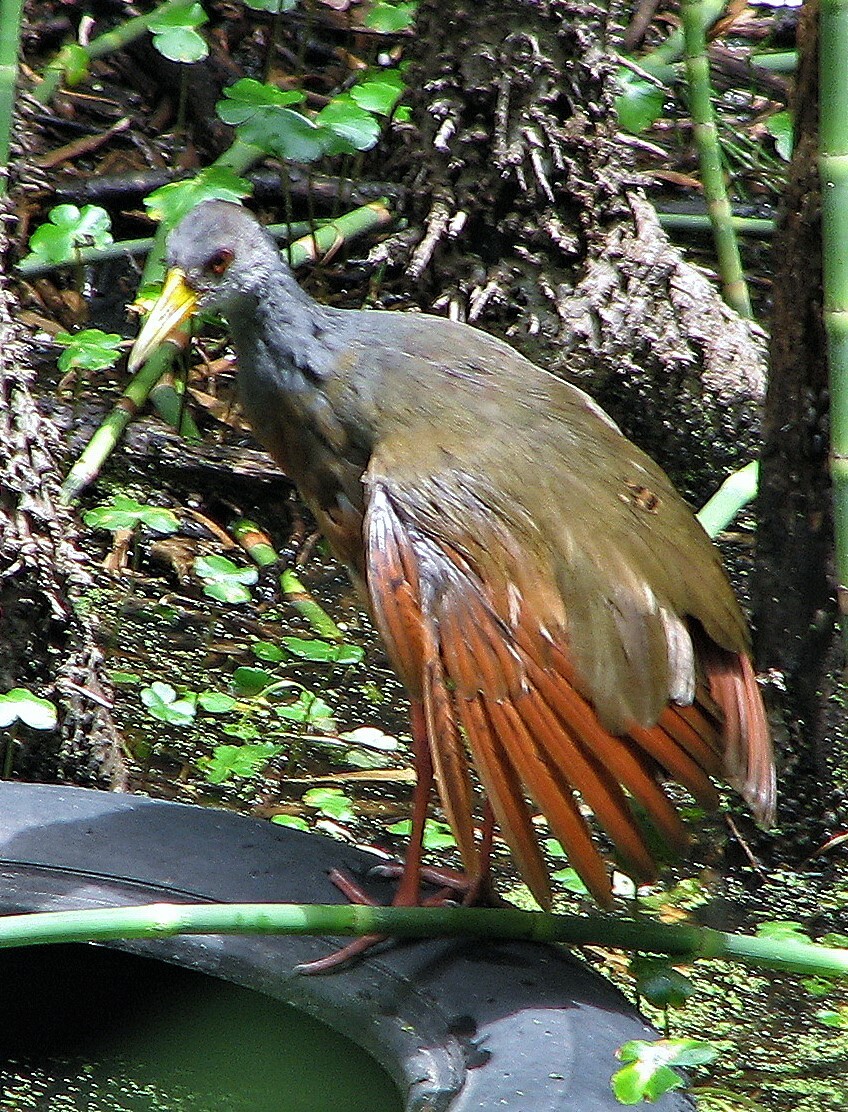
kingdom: Animalia
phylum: Chordata
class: Aves
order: Gruiformes
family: Rallidae
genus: Aramides
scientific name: Aramides cajanea
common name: Gray-necked wood-rail
